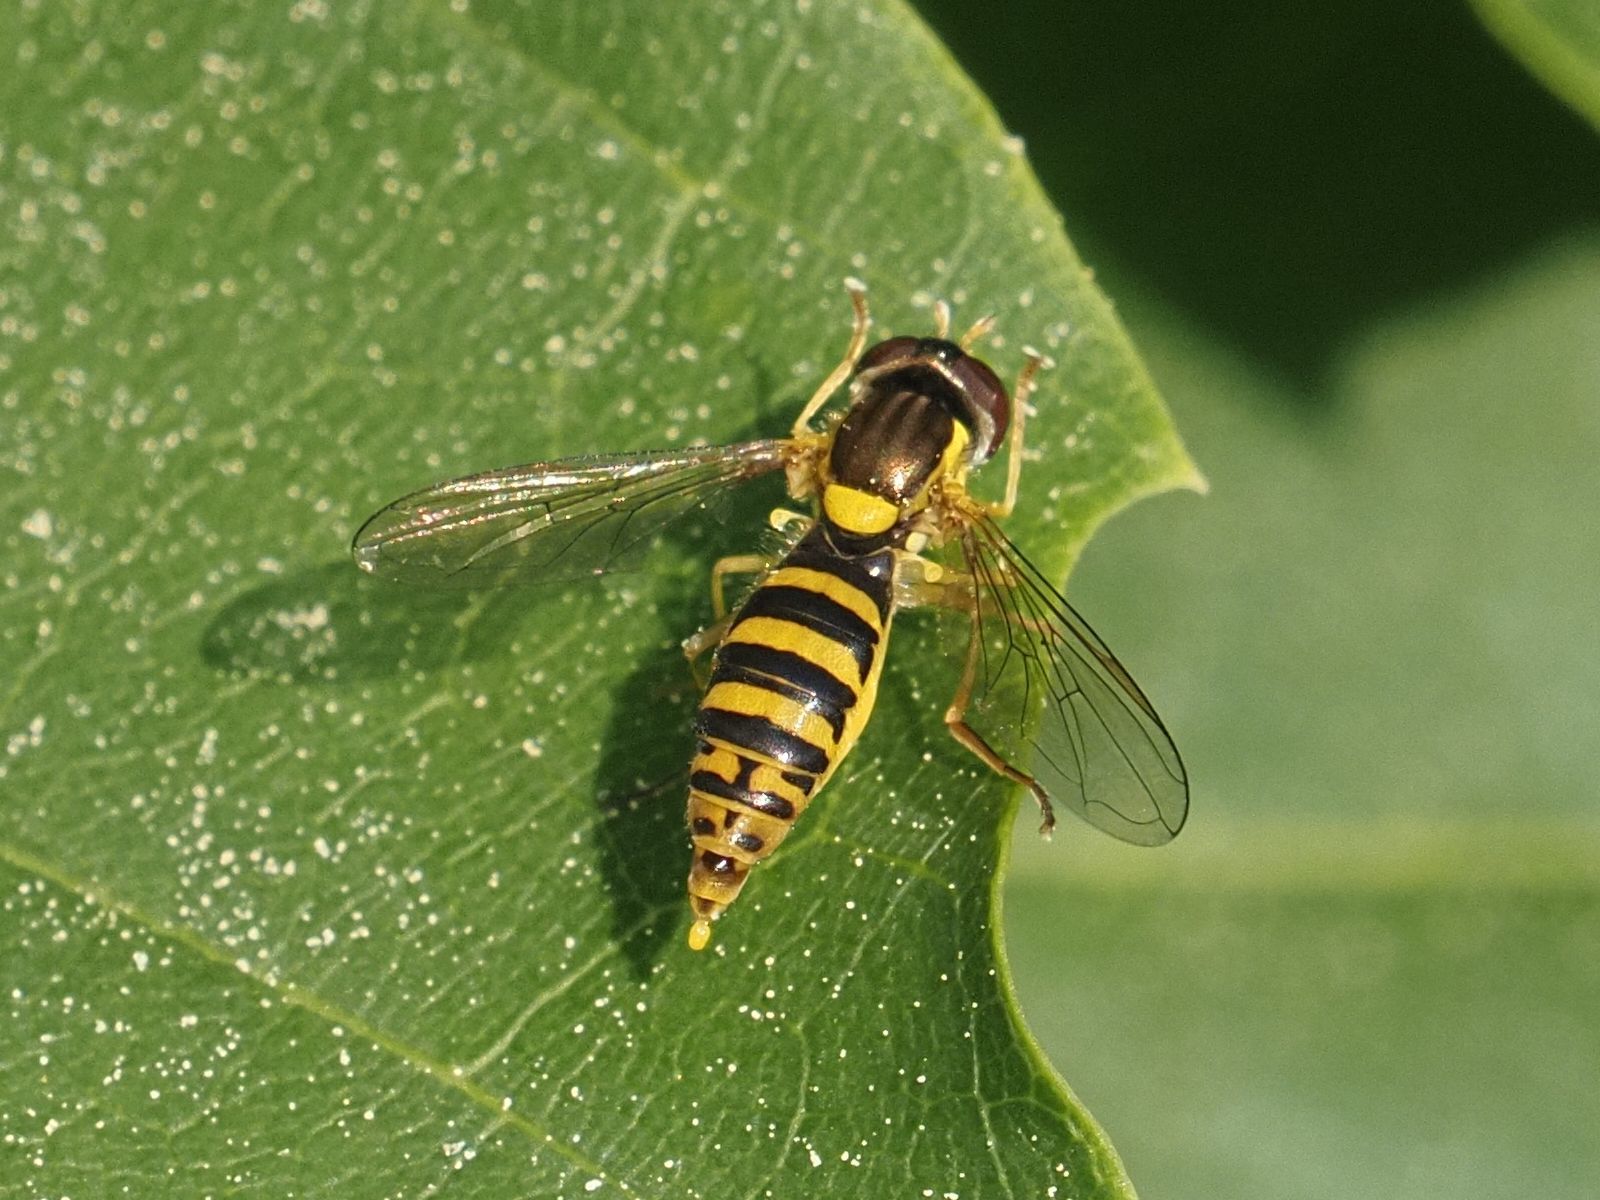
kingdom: Animalia
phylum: Arthropoda
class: Insecta
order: Diptera
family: Syrphidae
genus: Sphaerophoria
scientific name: Sphaerophoria
